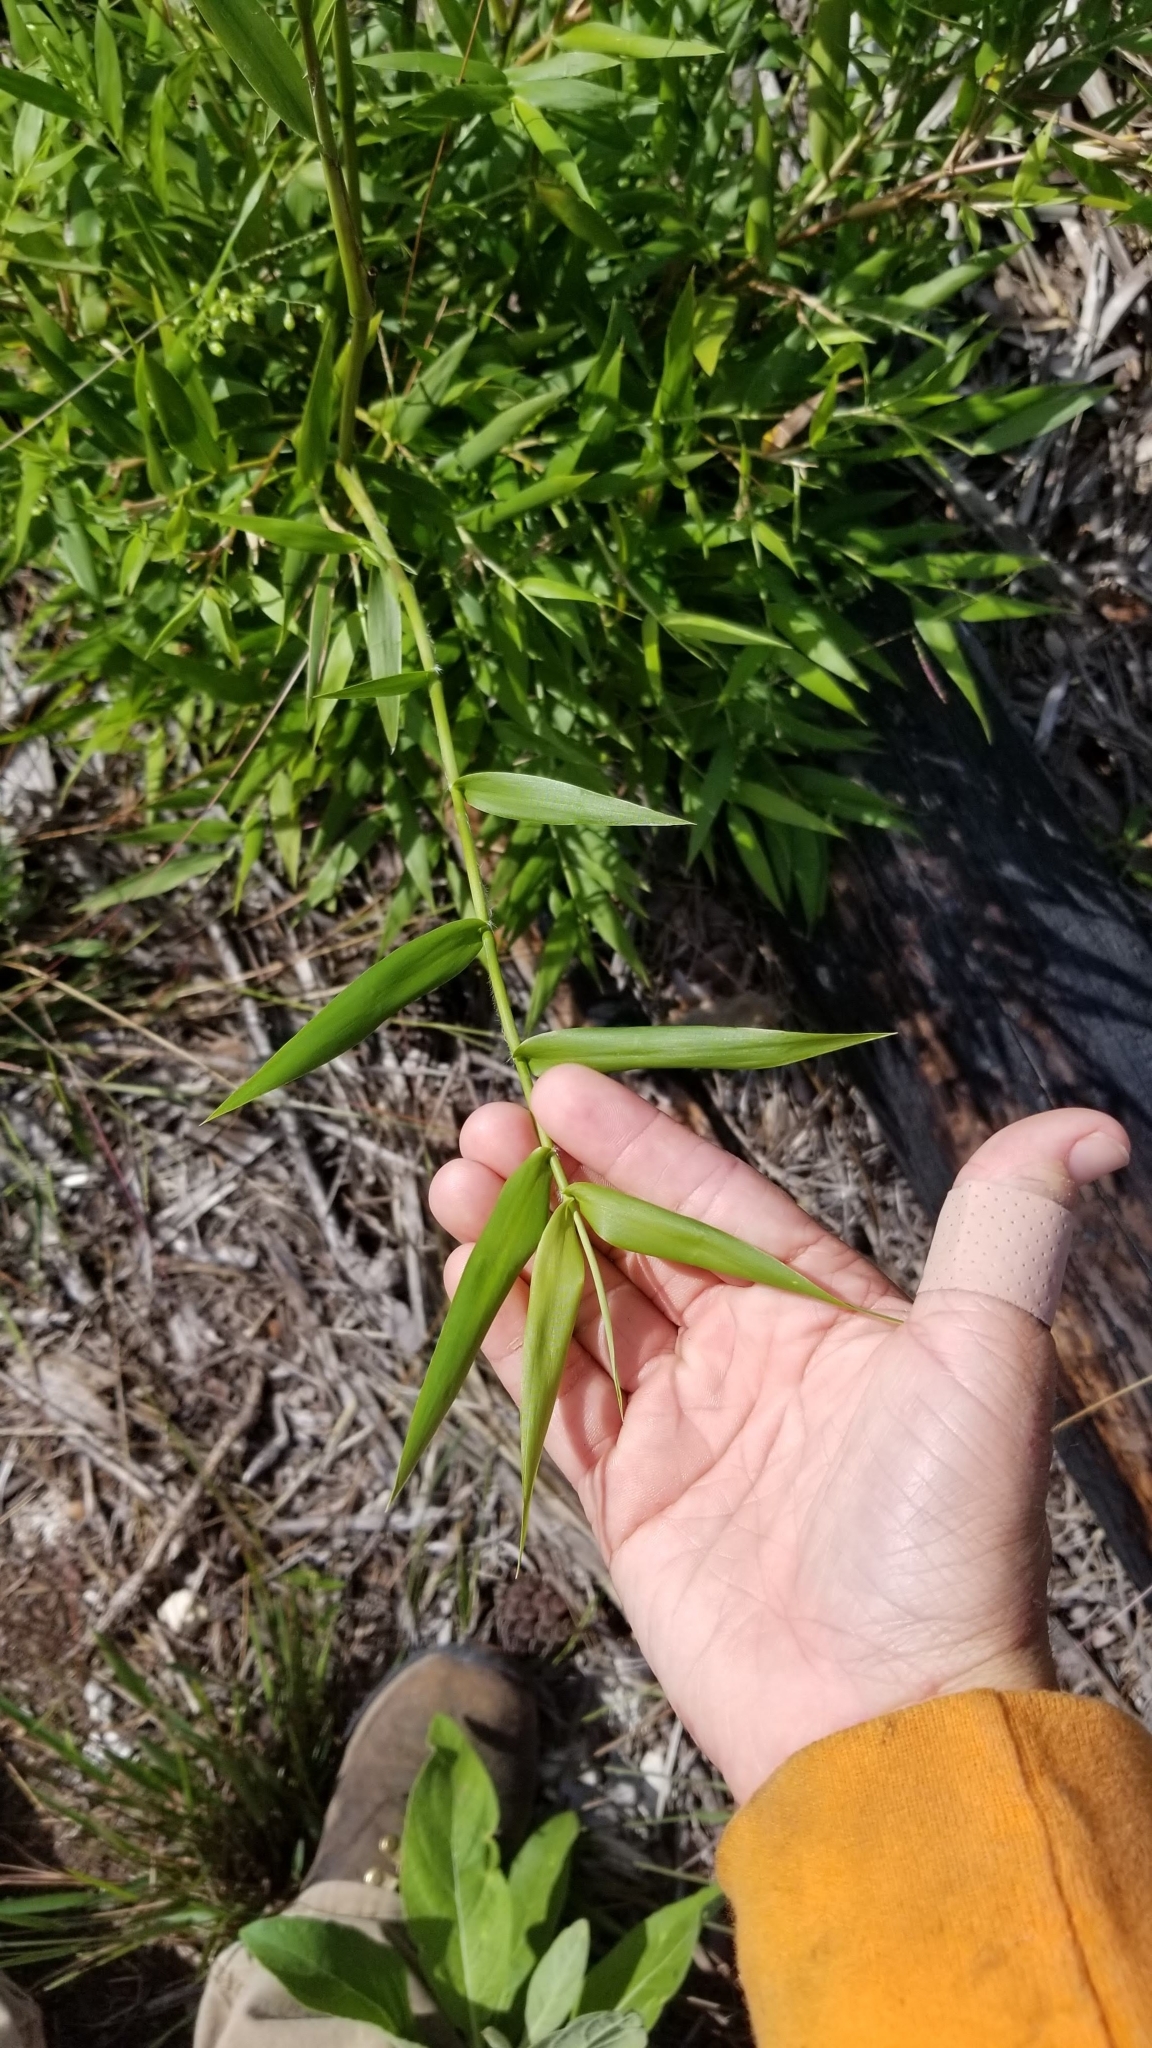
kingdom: Plantae
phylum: Tracheophyta
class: Liliopsida
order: Poales
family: Poaceae
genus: Lasiacis
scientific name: Lasiacis divaricata
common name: Smallcane
